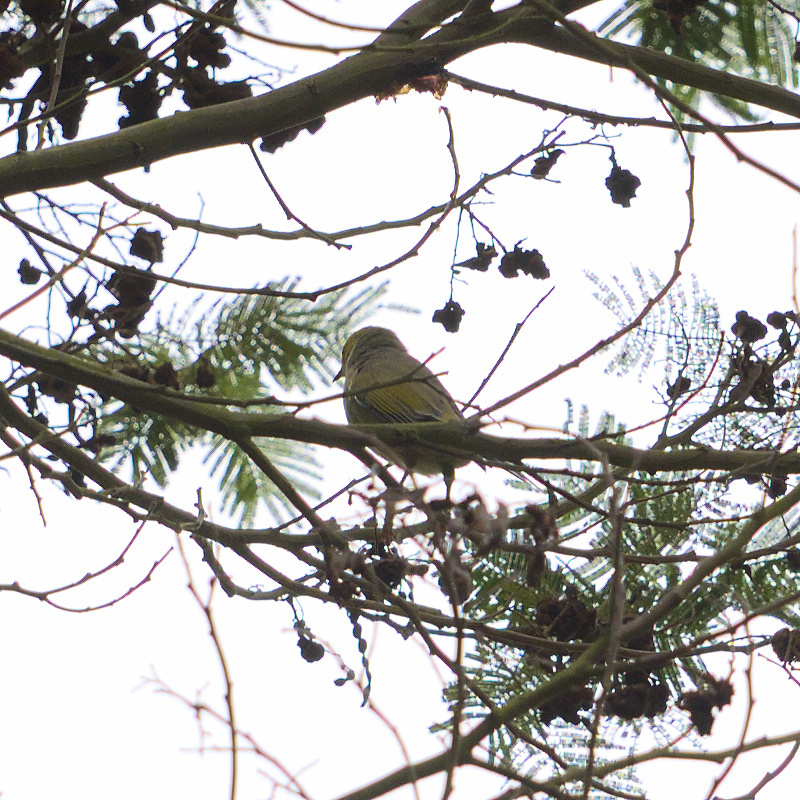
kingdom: Animalia
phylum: Chordata
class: Aves
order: Passeriformes
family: Meliphagidae
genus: Ptilotula
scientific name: Ptilotula penicillata
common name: White-plumed honeyeater
